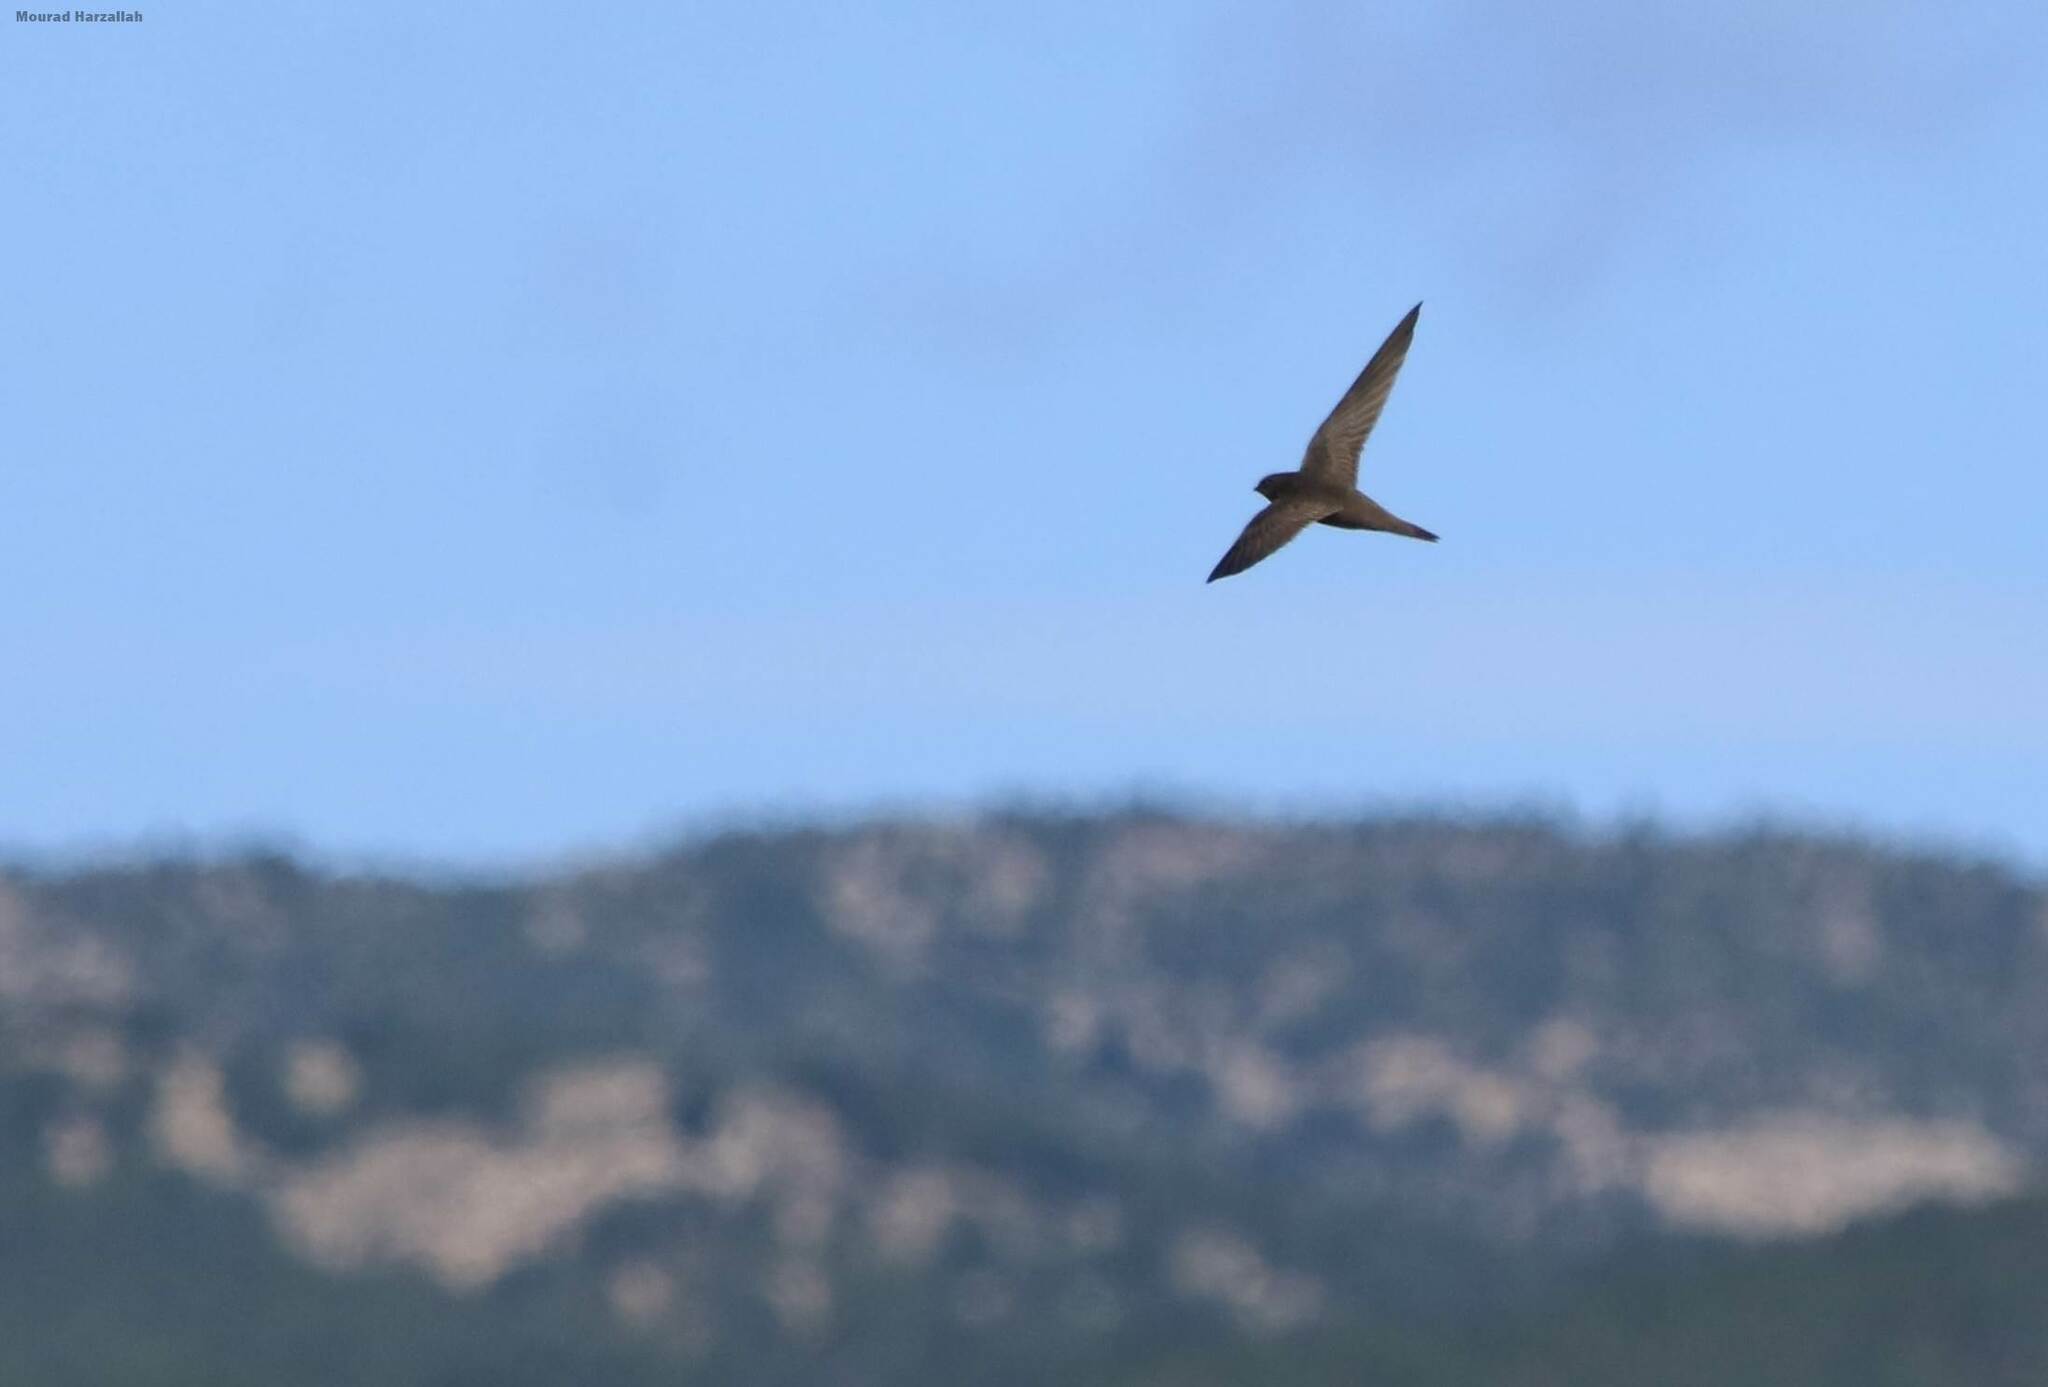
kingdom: Animalia
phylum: Chordata
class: Aves
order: Apodiformes
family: Apodidae
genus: Apus
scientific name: Apus apus
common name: Common swift
